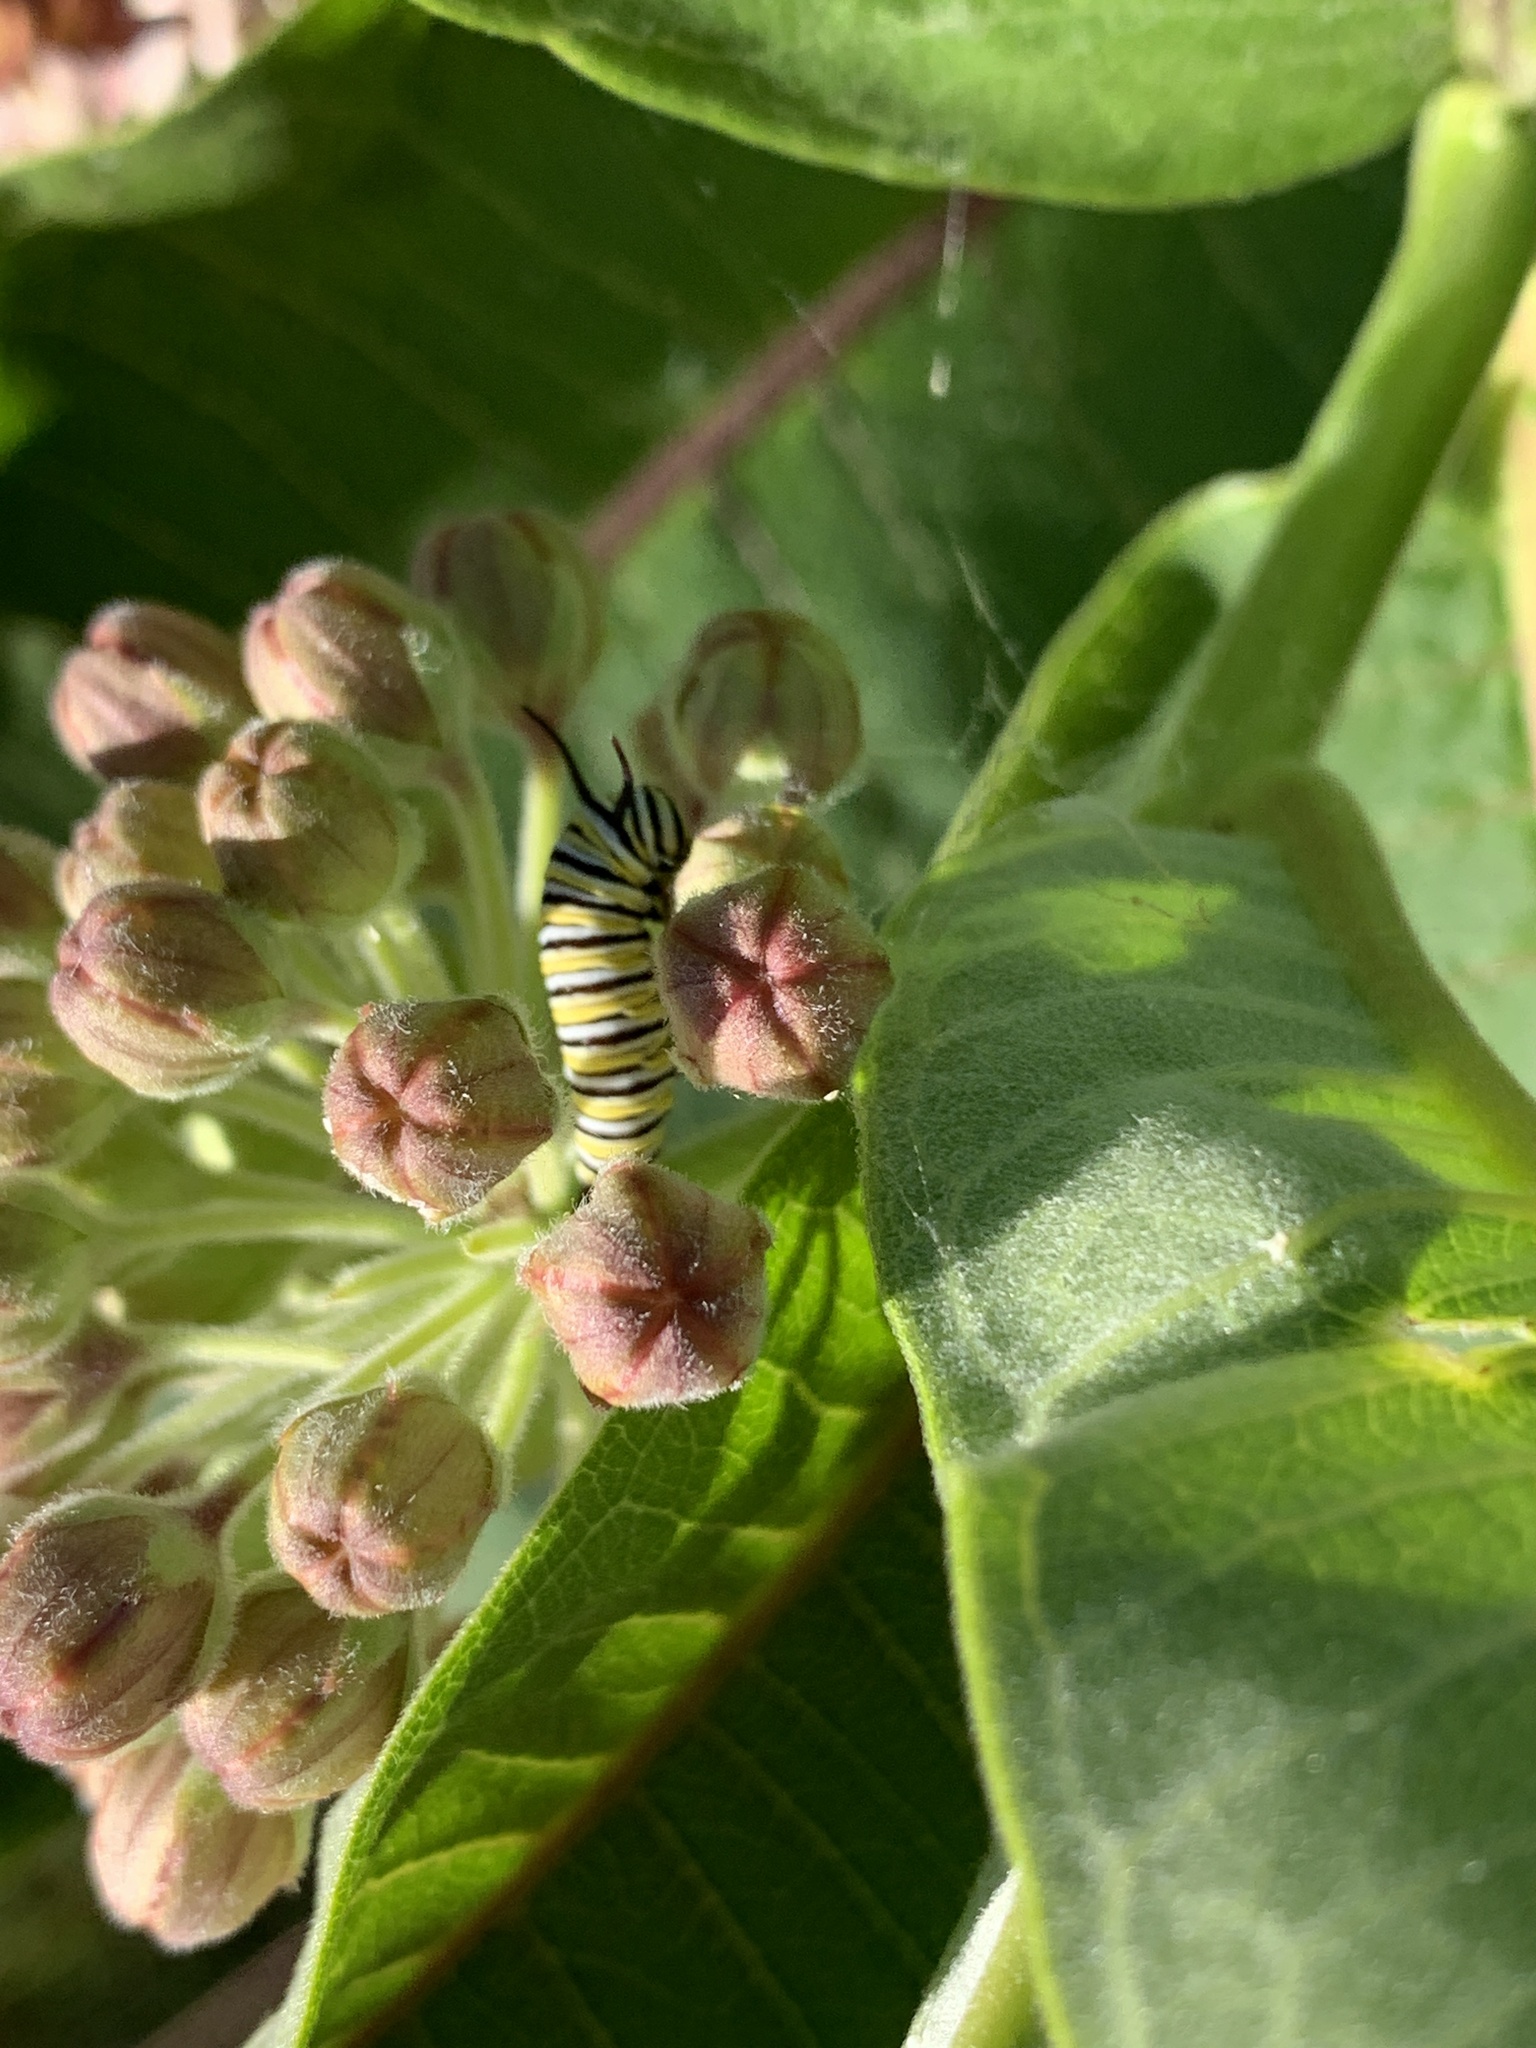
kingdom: Animalia
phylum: Arthropoda
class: Insecta
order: Lepidoptera
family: Nymphalidae
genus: Danaus
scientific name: Danaus plexippus
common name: Monarch
